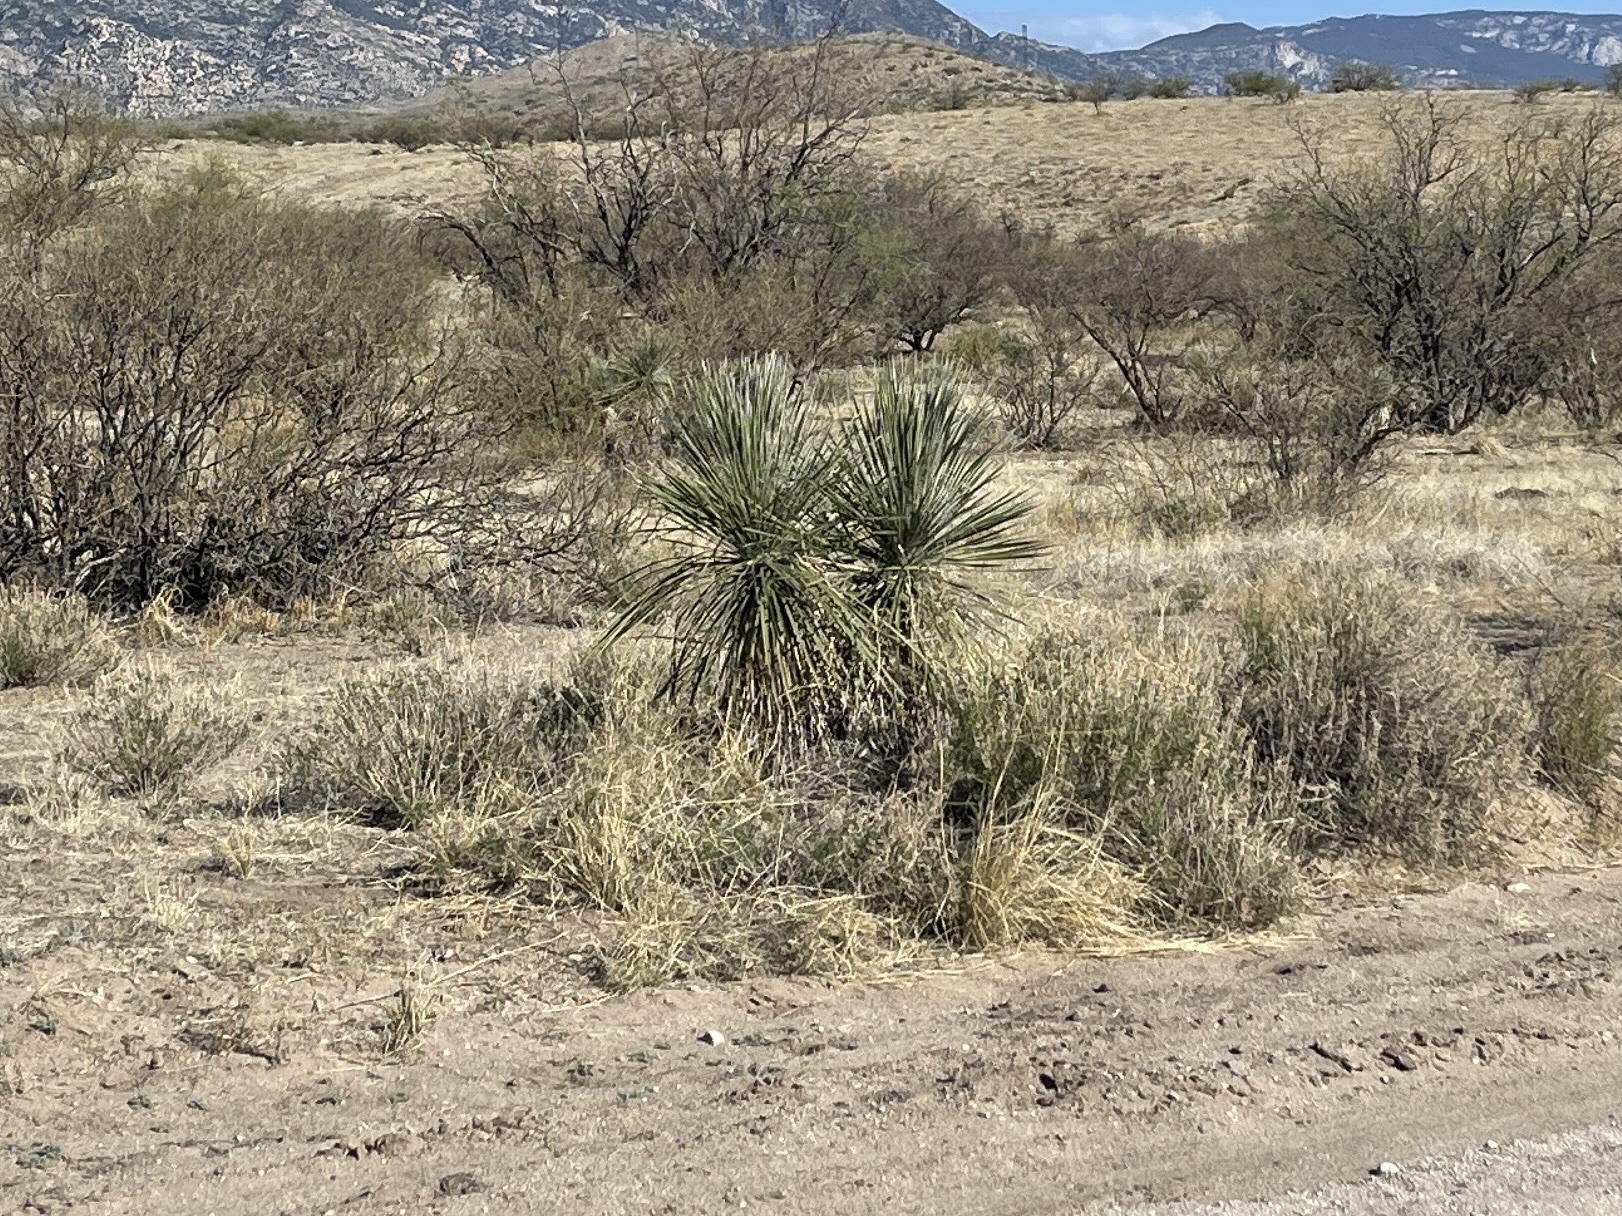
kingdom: Plantae
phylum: Tracheophyta
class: Liliopsida
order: Asparagales
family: Asparagaceae
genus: Yucca
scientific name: Yucca elata
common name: Palmella
